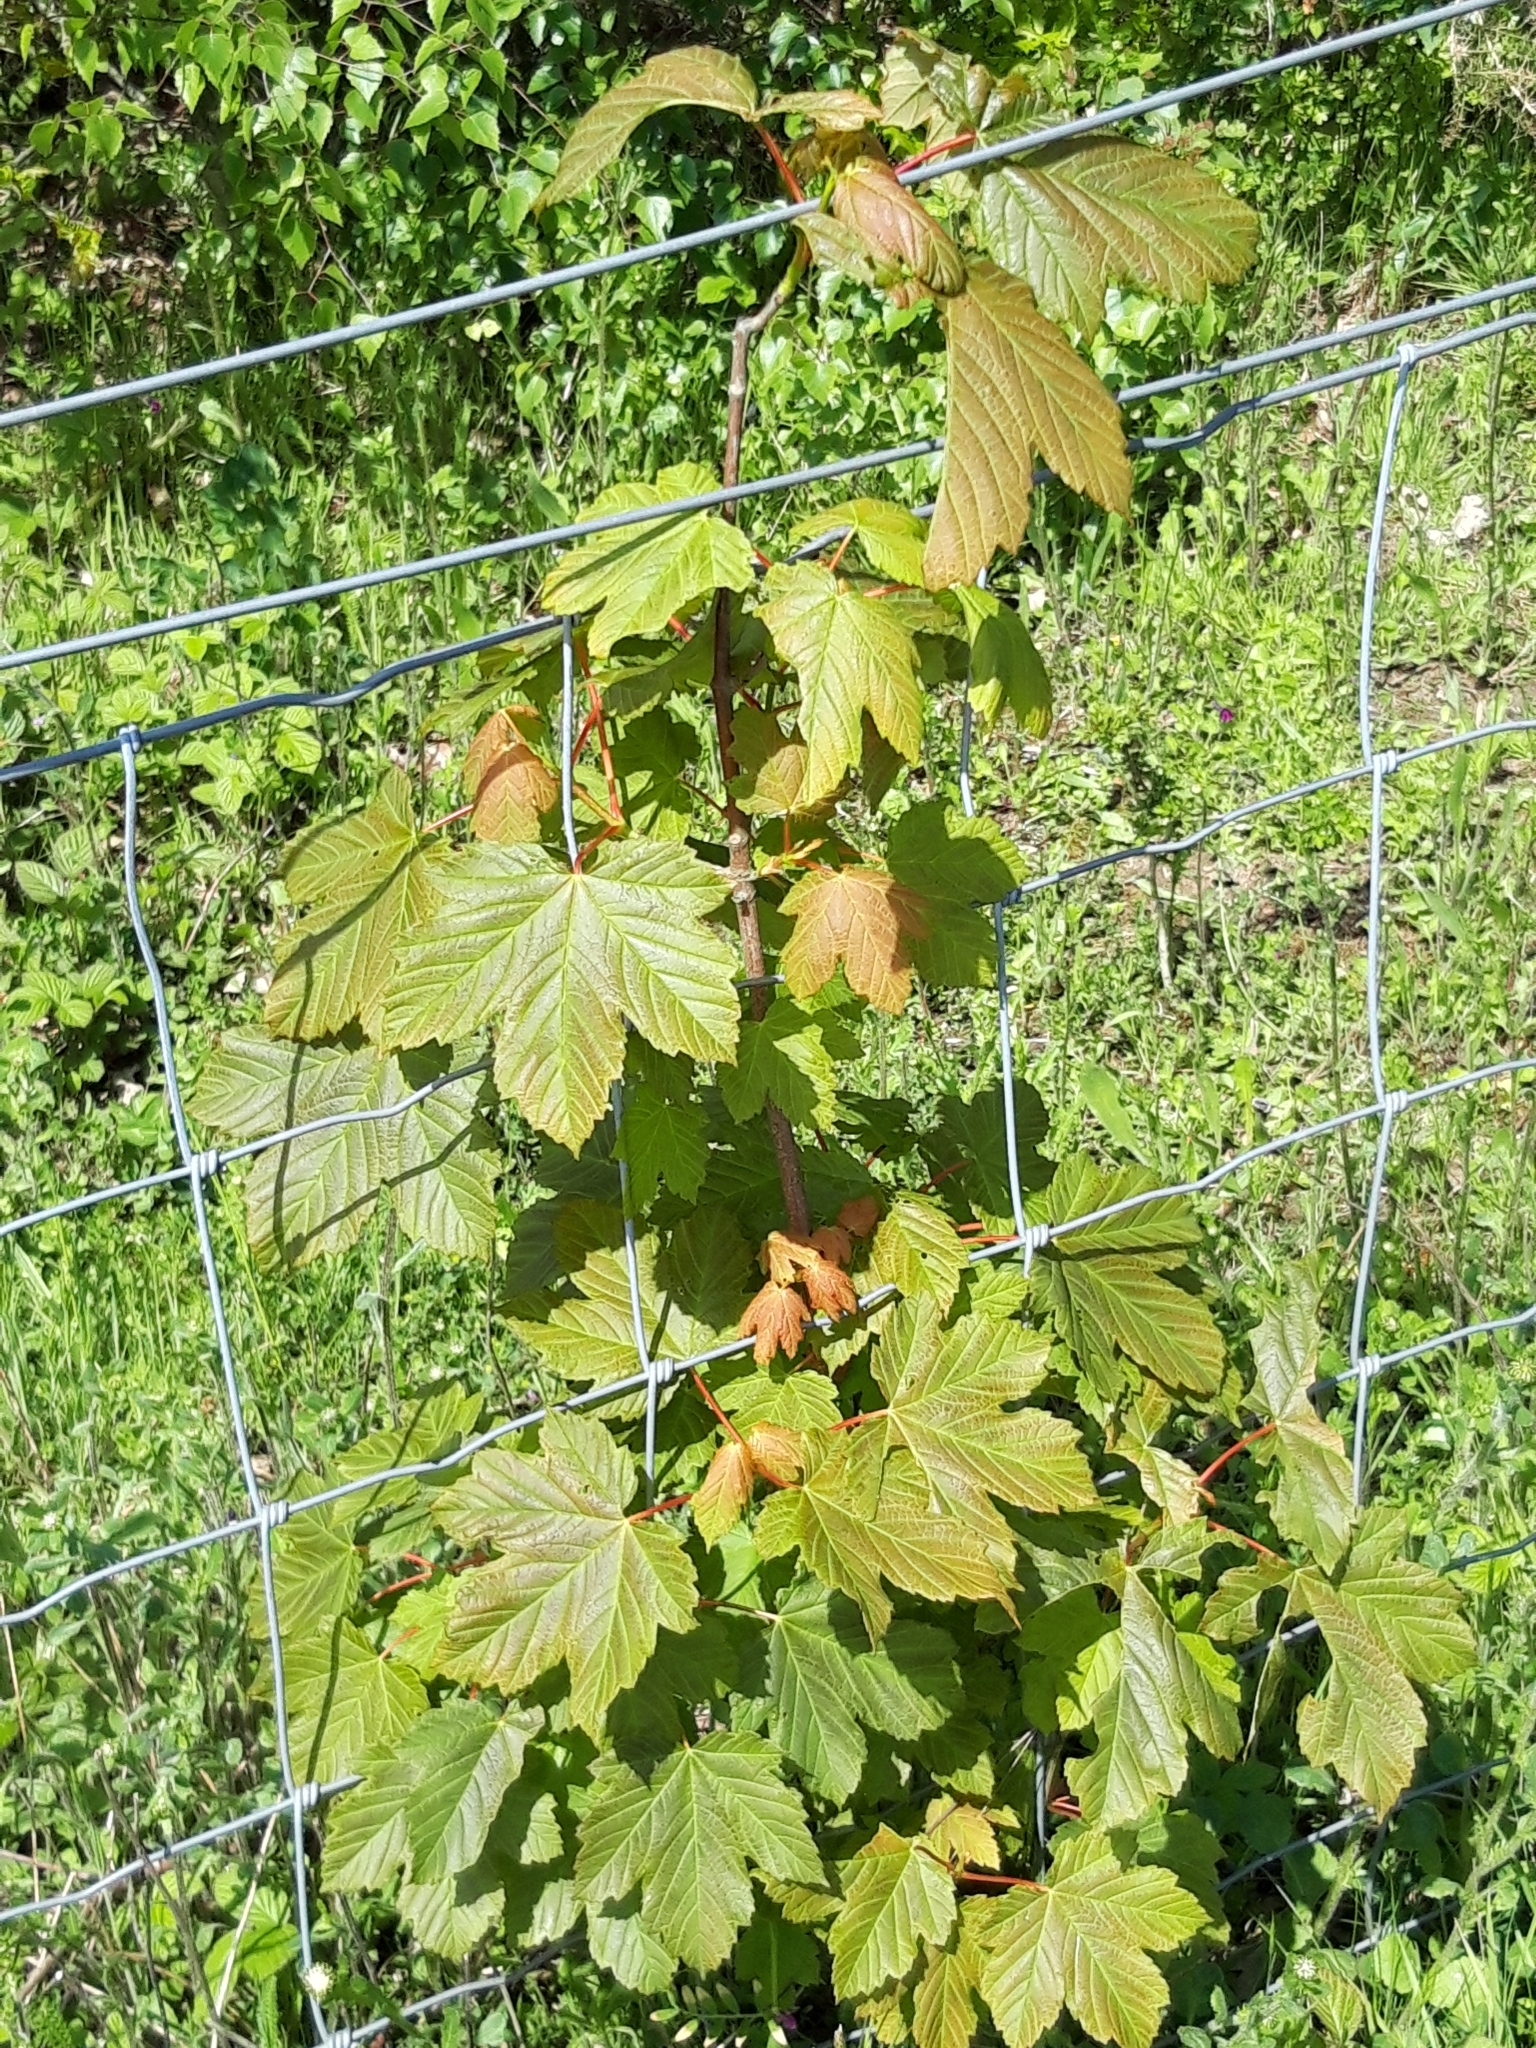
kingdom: Plantae
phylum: Tracheophyta
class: Magnoliopsida
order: Sapindales
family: Sapindaceae
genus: Acer
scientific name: Acer pseudoplatanus
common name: Sycamore
